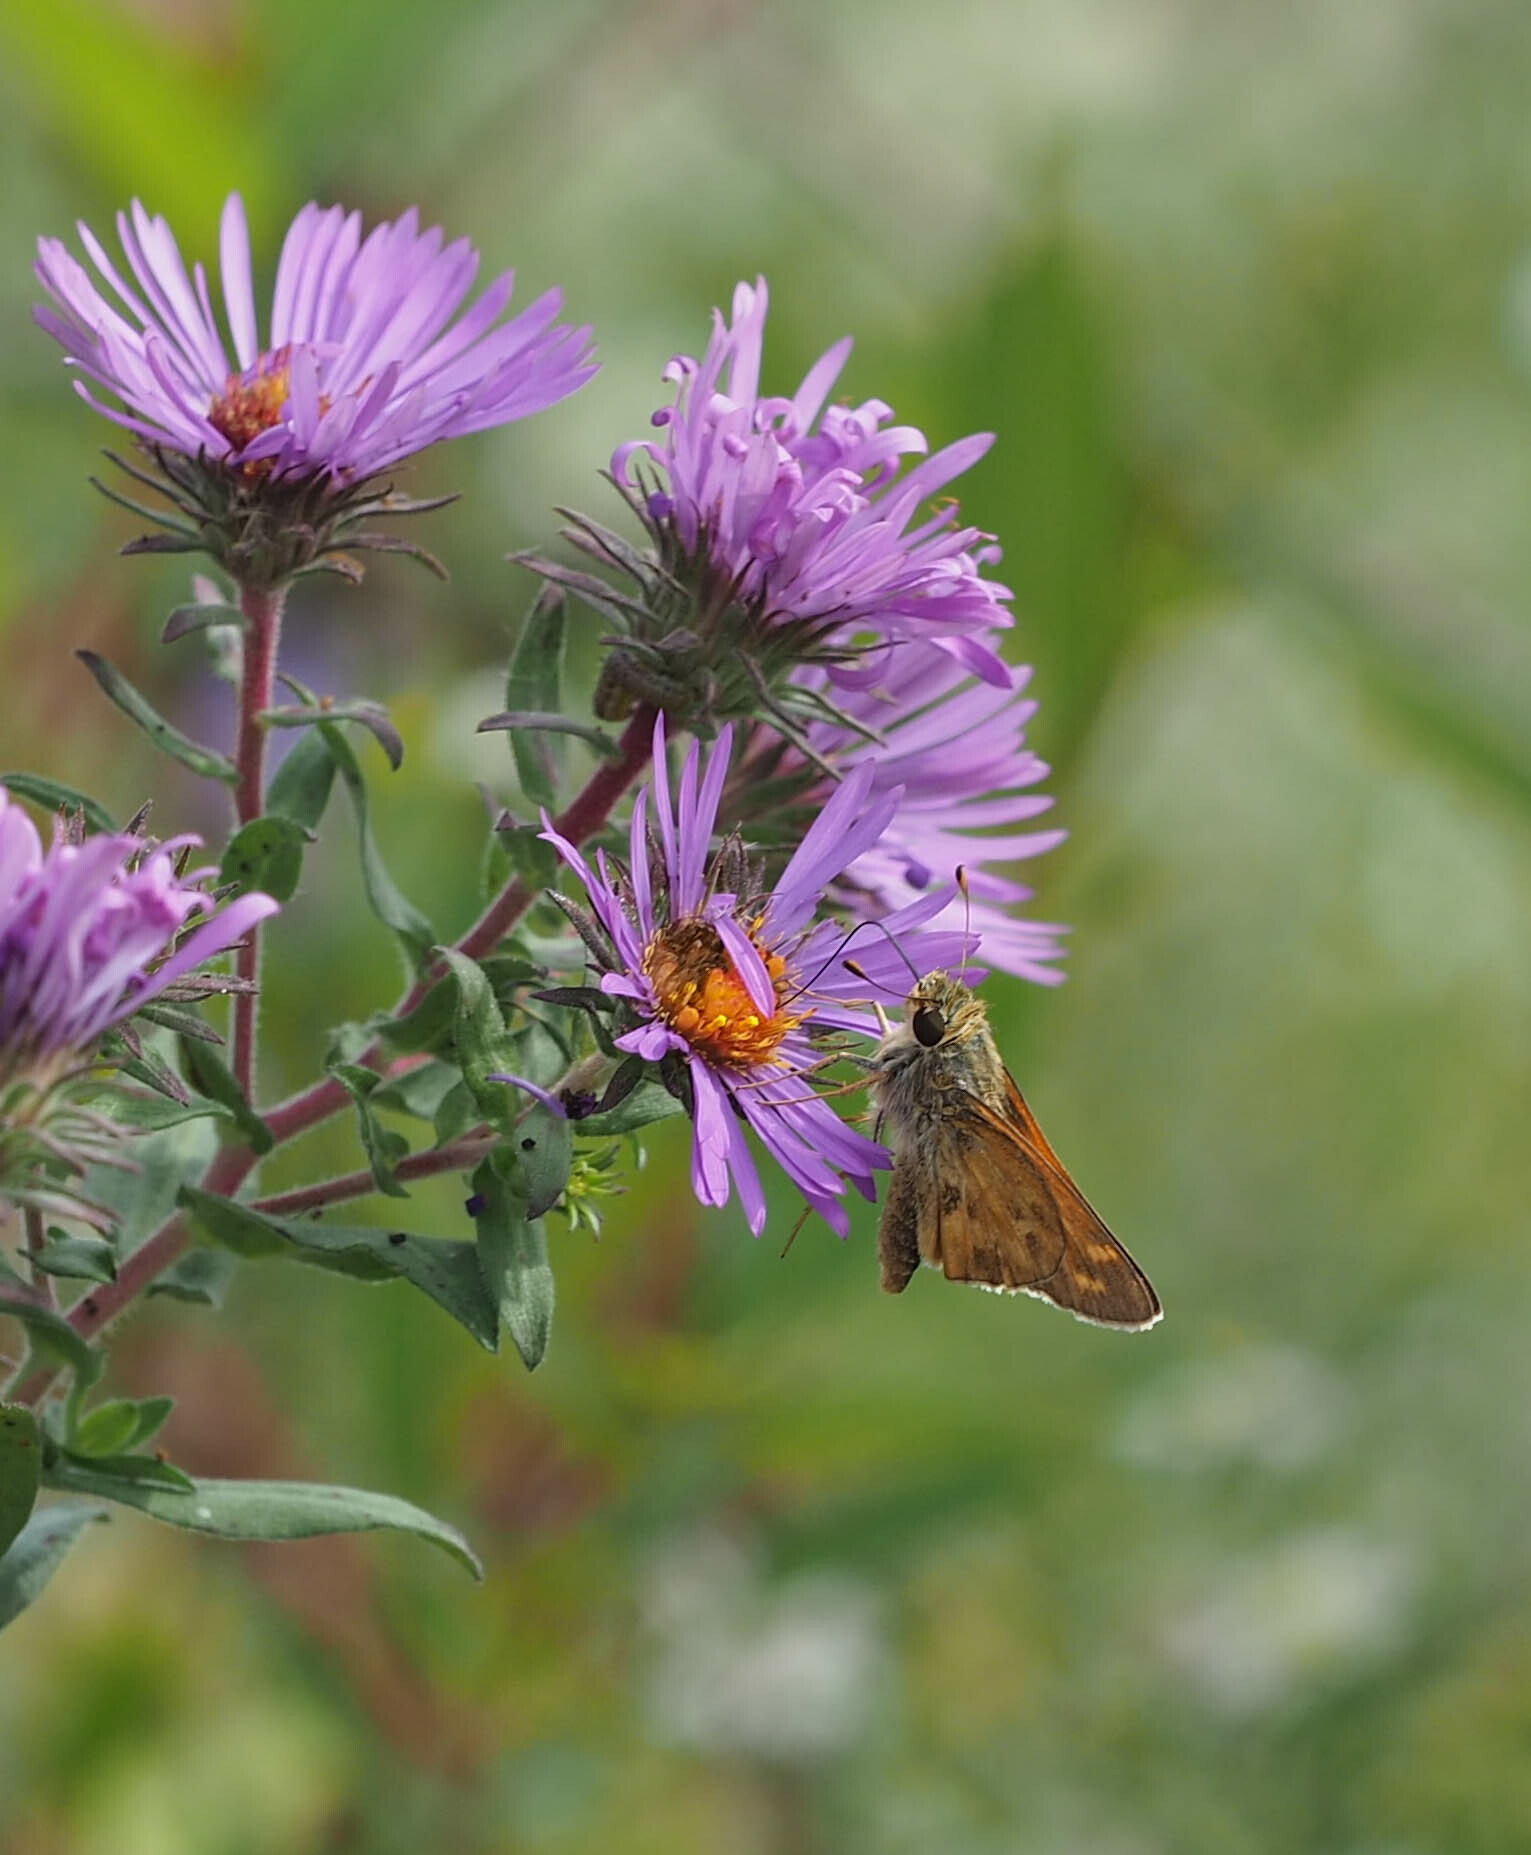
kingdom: Animalia
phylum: Arthropoda
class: Insecta
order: Lepidoptera
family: Hesperiidae
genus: Atalopedes
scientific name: Atalopedes
